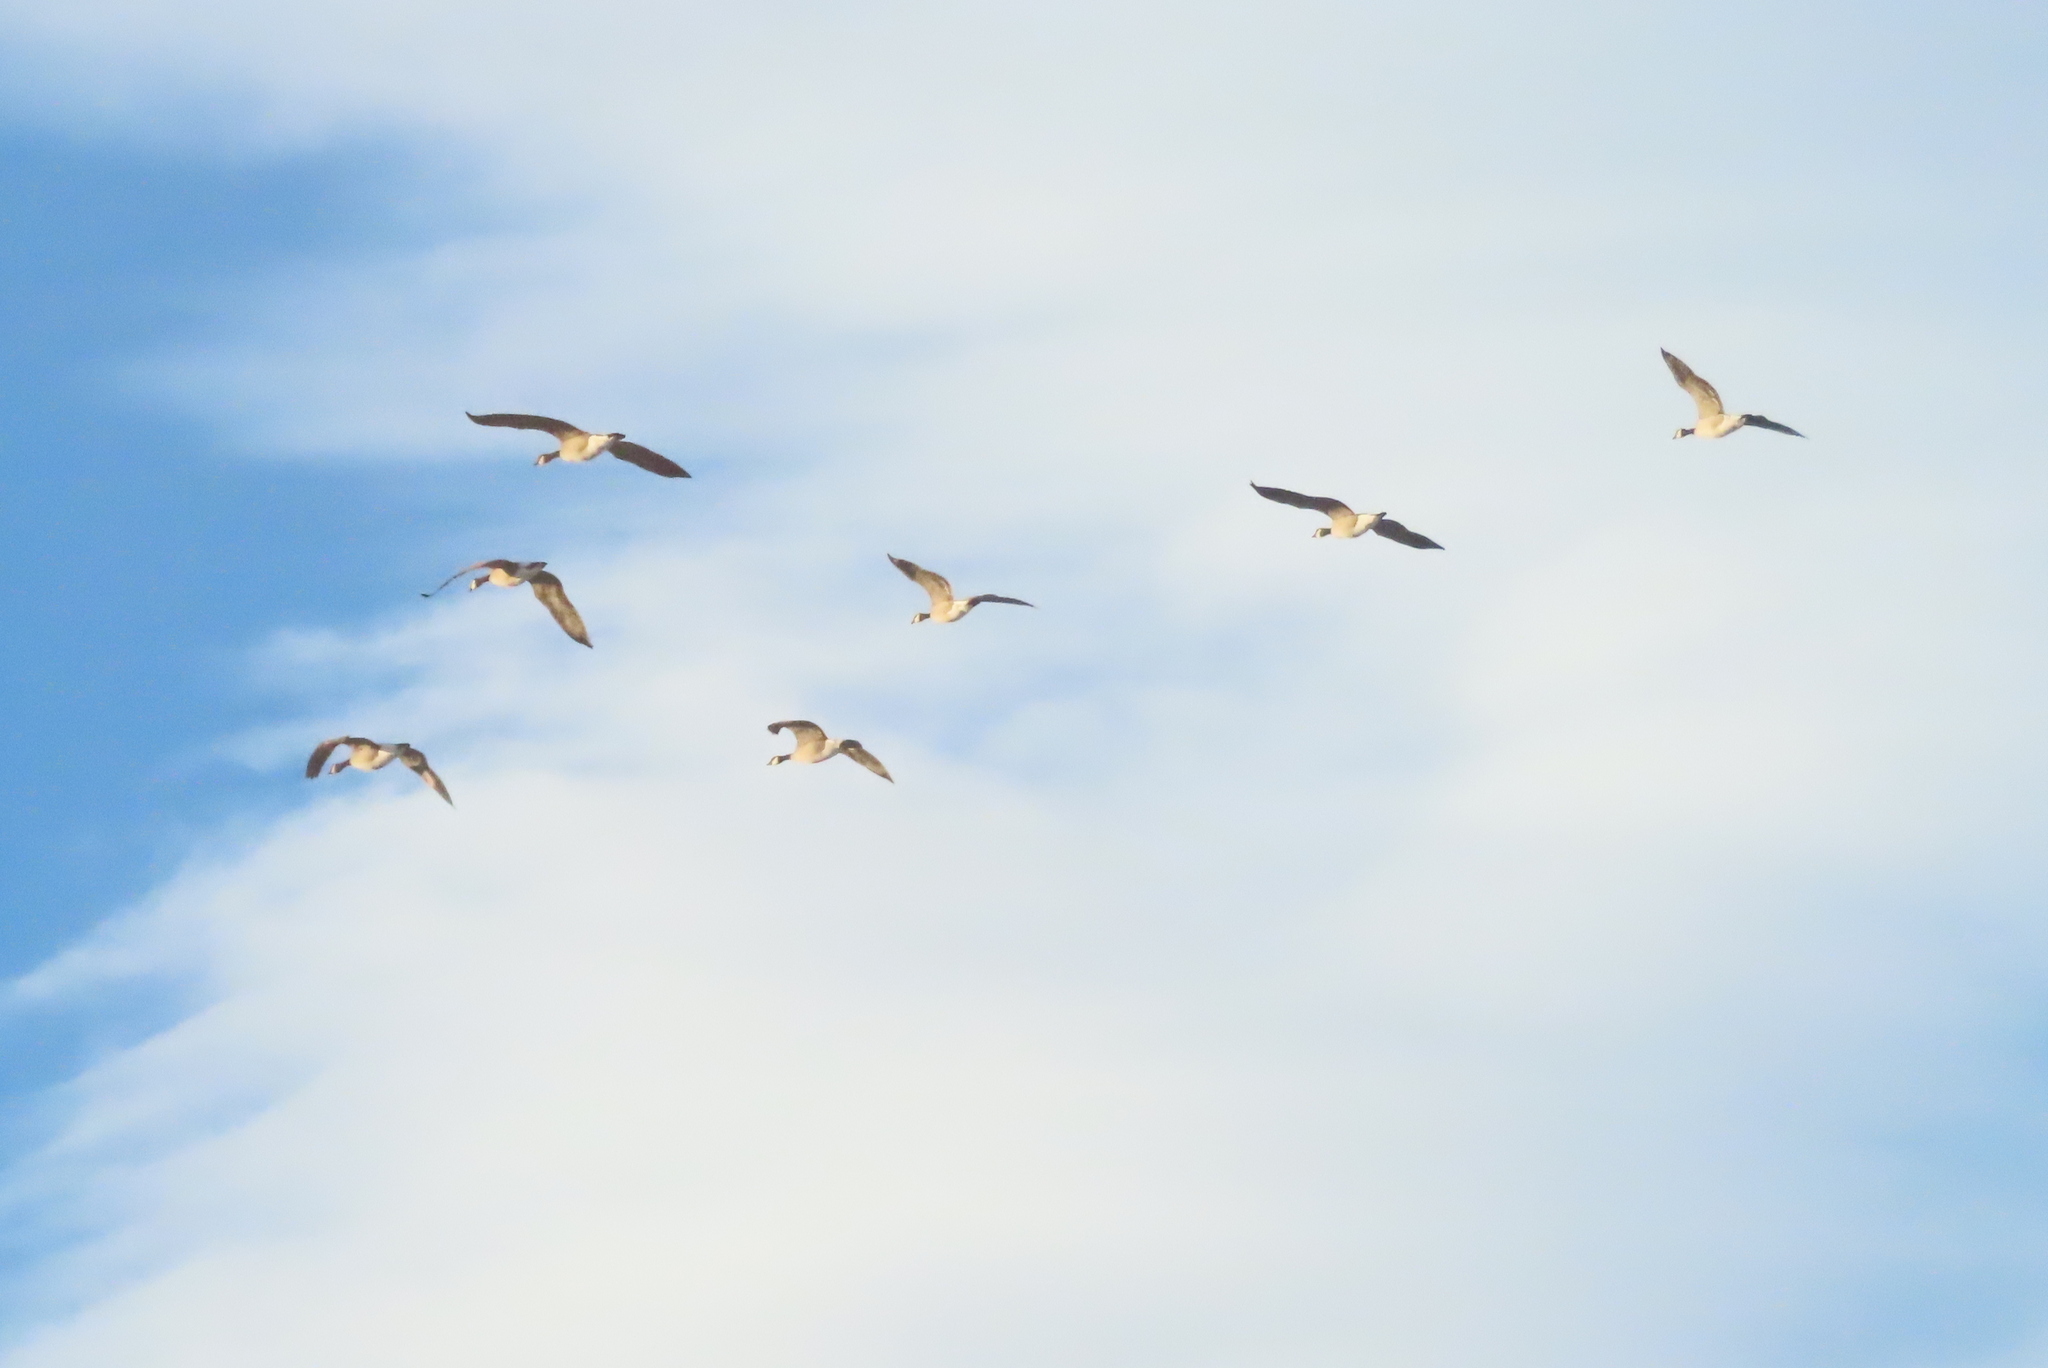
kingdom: Animalia
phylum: Chordata
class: Aves
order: Anseriformes
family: Anatidae
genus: Branta
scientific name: Branta canadensis
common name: Canada goose
